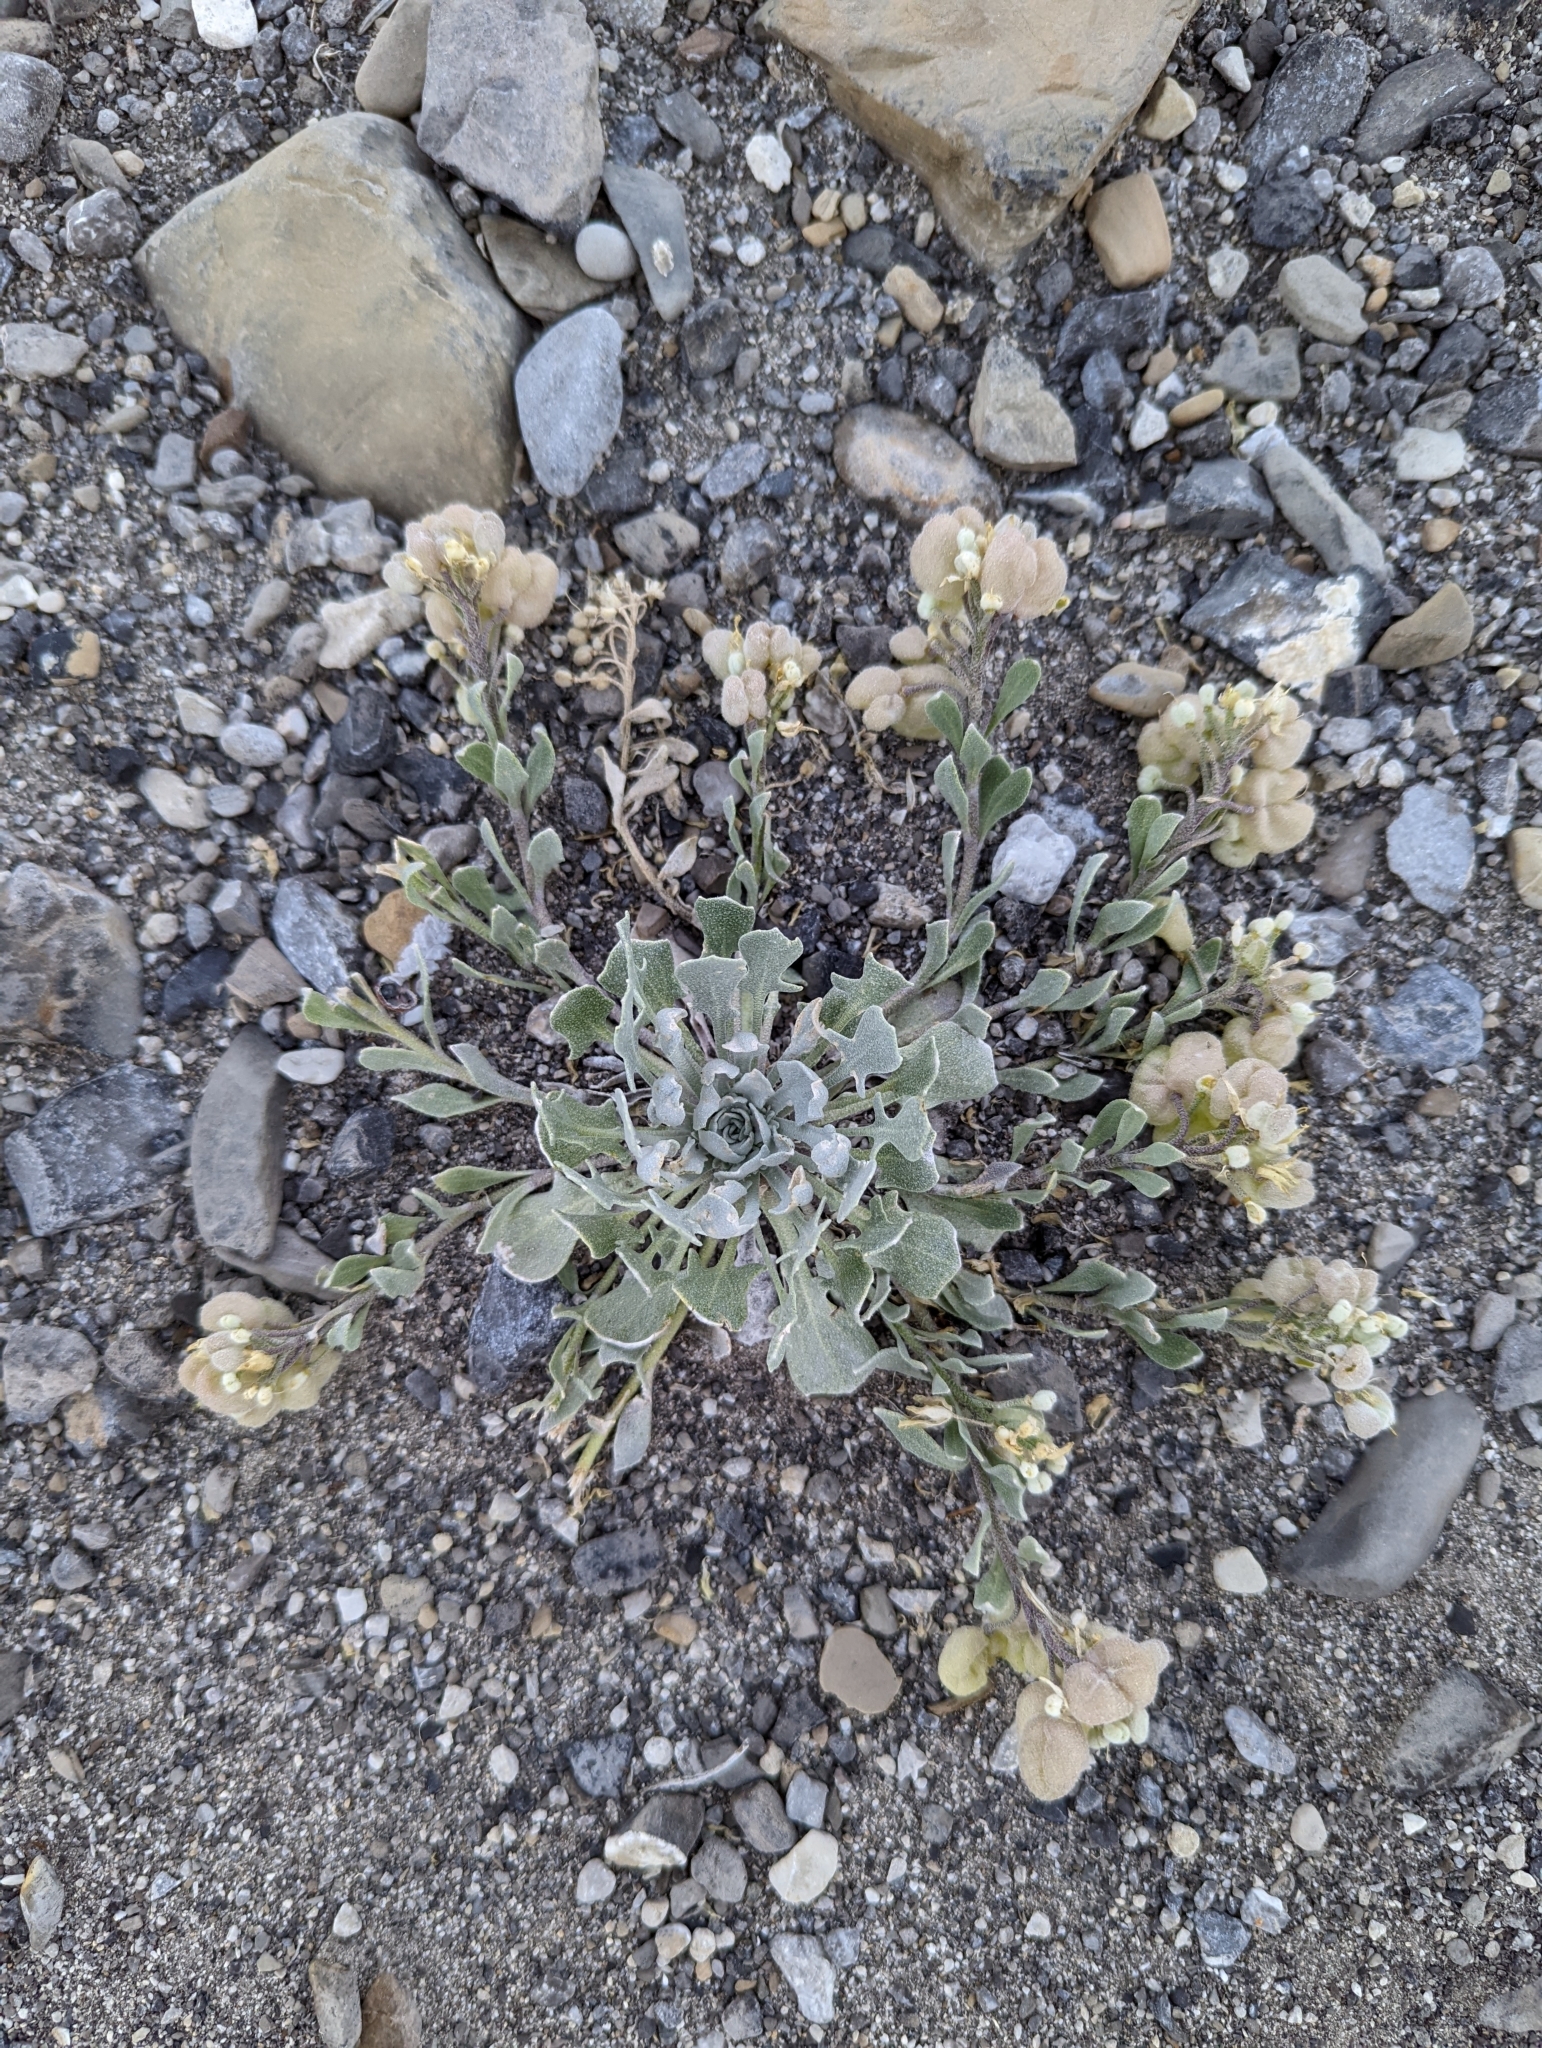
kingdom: Plantae
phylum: Tracheophyta
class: Magnoliopsida
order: Brassicales
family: Brassicaceae
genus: Physaria
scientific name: Physaria didymocarpa
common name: Common twinpod
